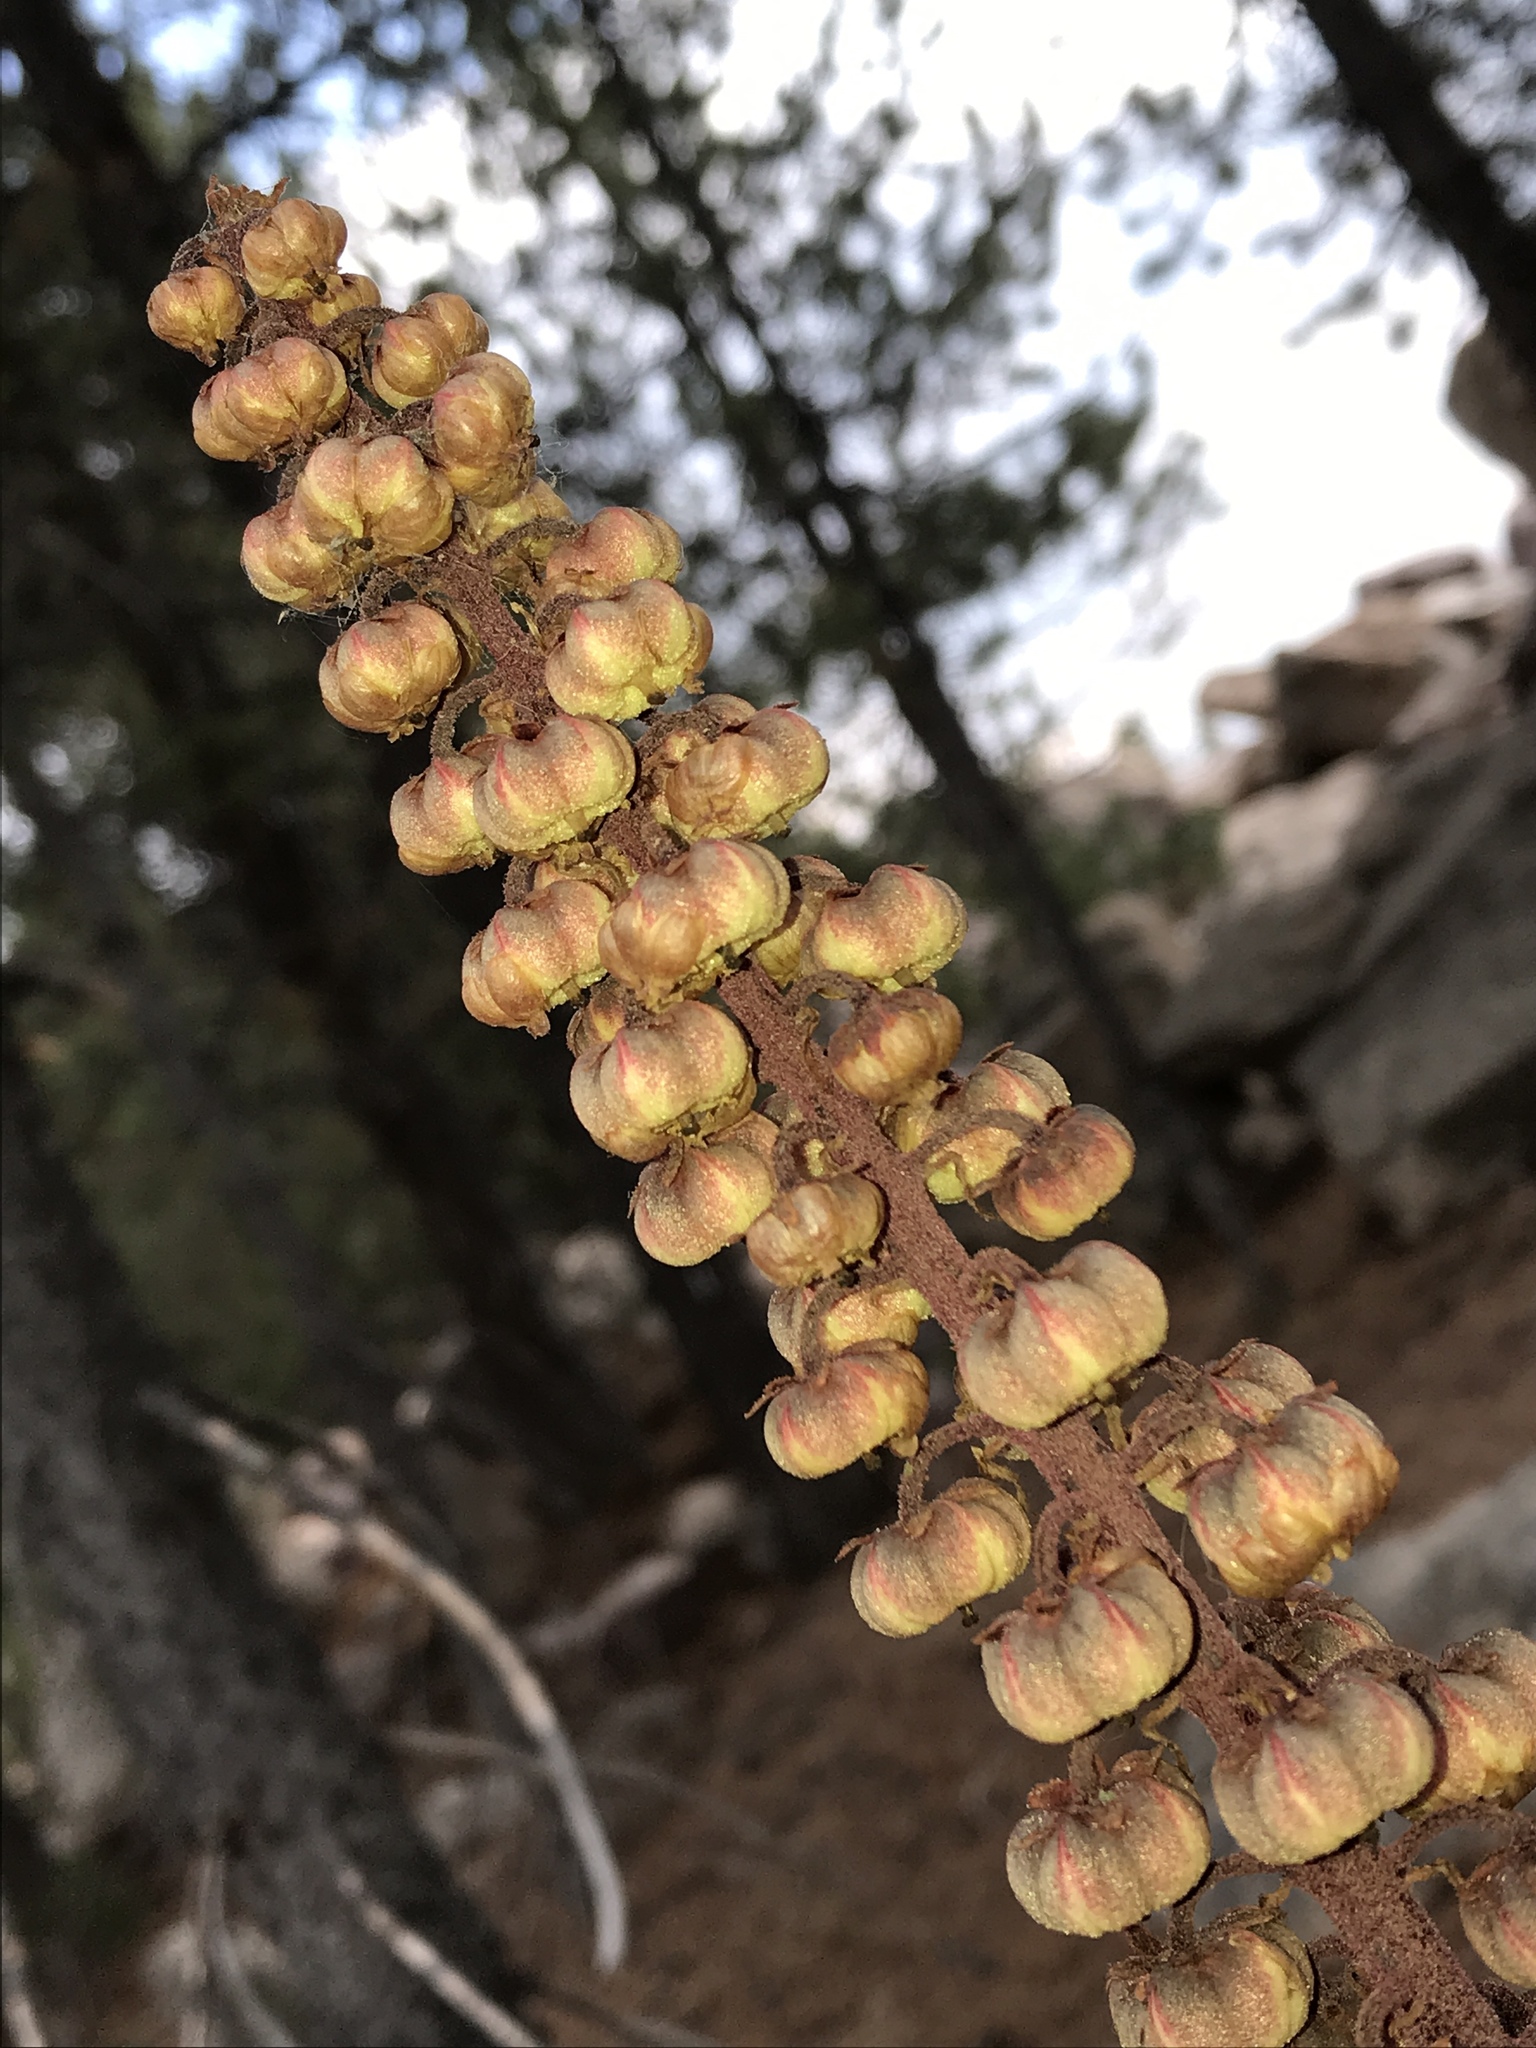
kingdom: Plantae
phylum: Tracheophyta
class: Magnoliopsida
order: Ericales
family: Ericaceae
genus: Pterospora
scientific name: Pterospora andromedea
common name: Giant bird's-nest
